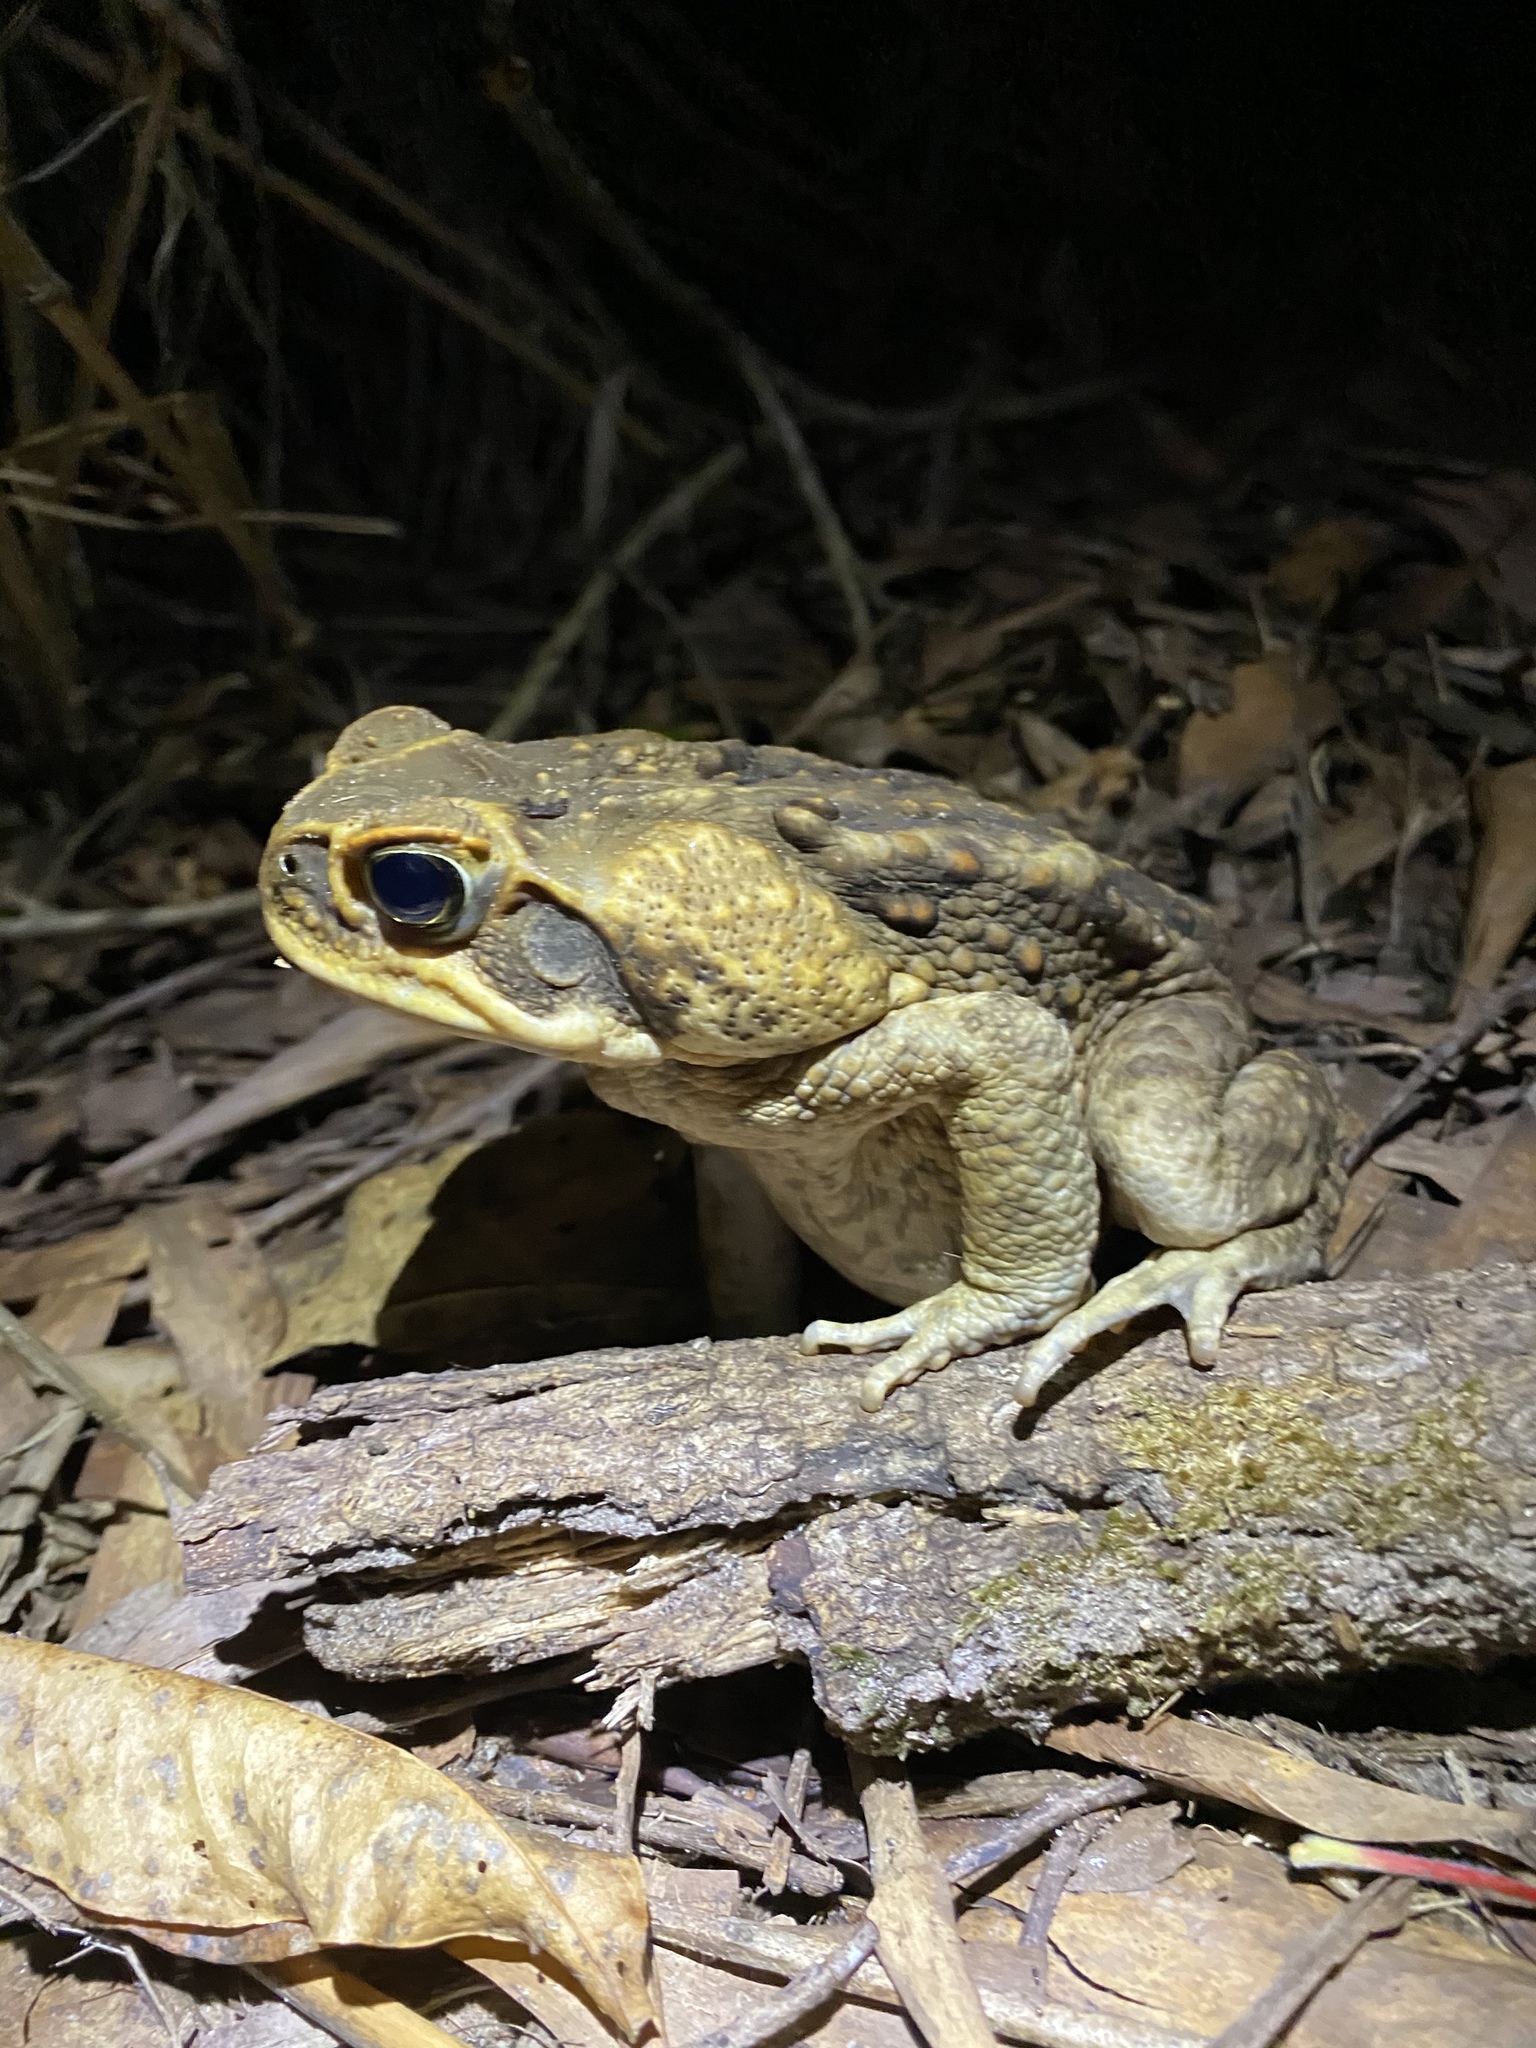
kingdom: Animalia
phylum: Chordata
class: Amphibia
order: Anura
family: Bufonidae
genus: Rhinella
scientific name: Rhinella marina
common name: Cane toad
